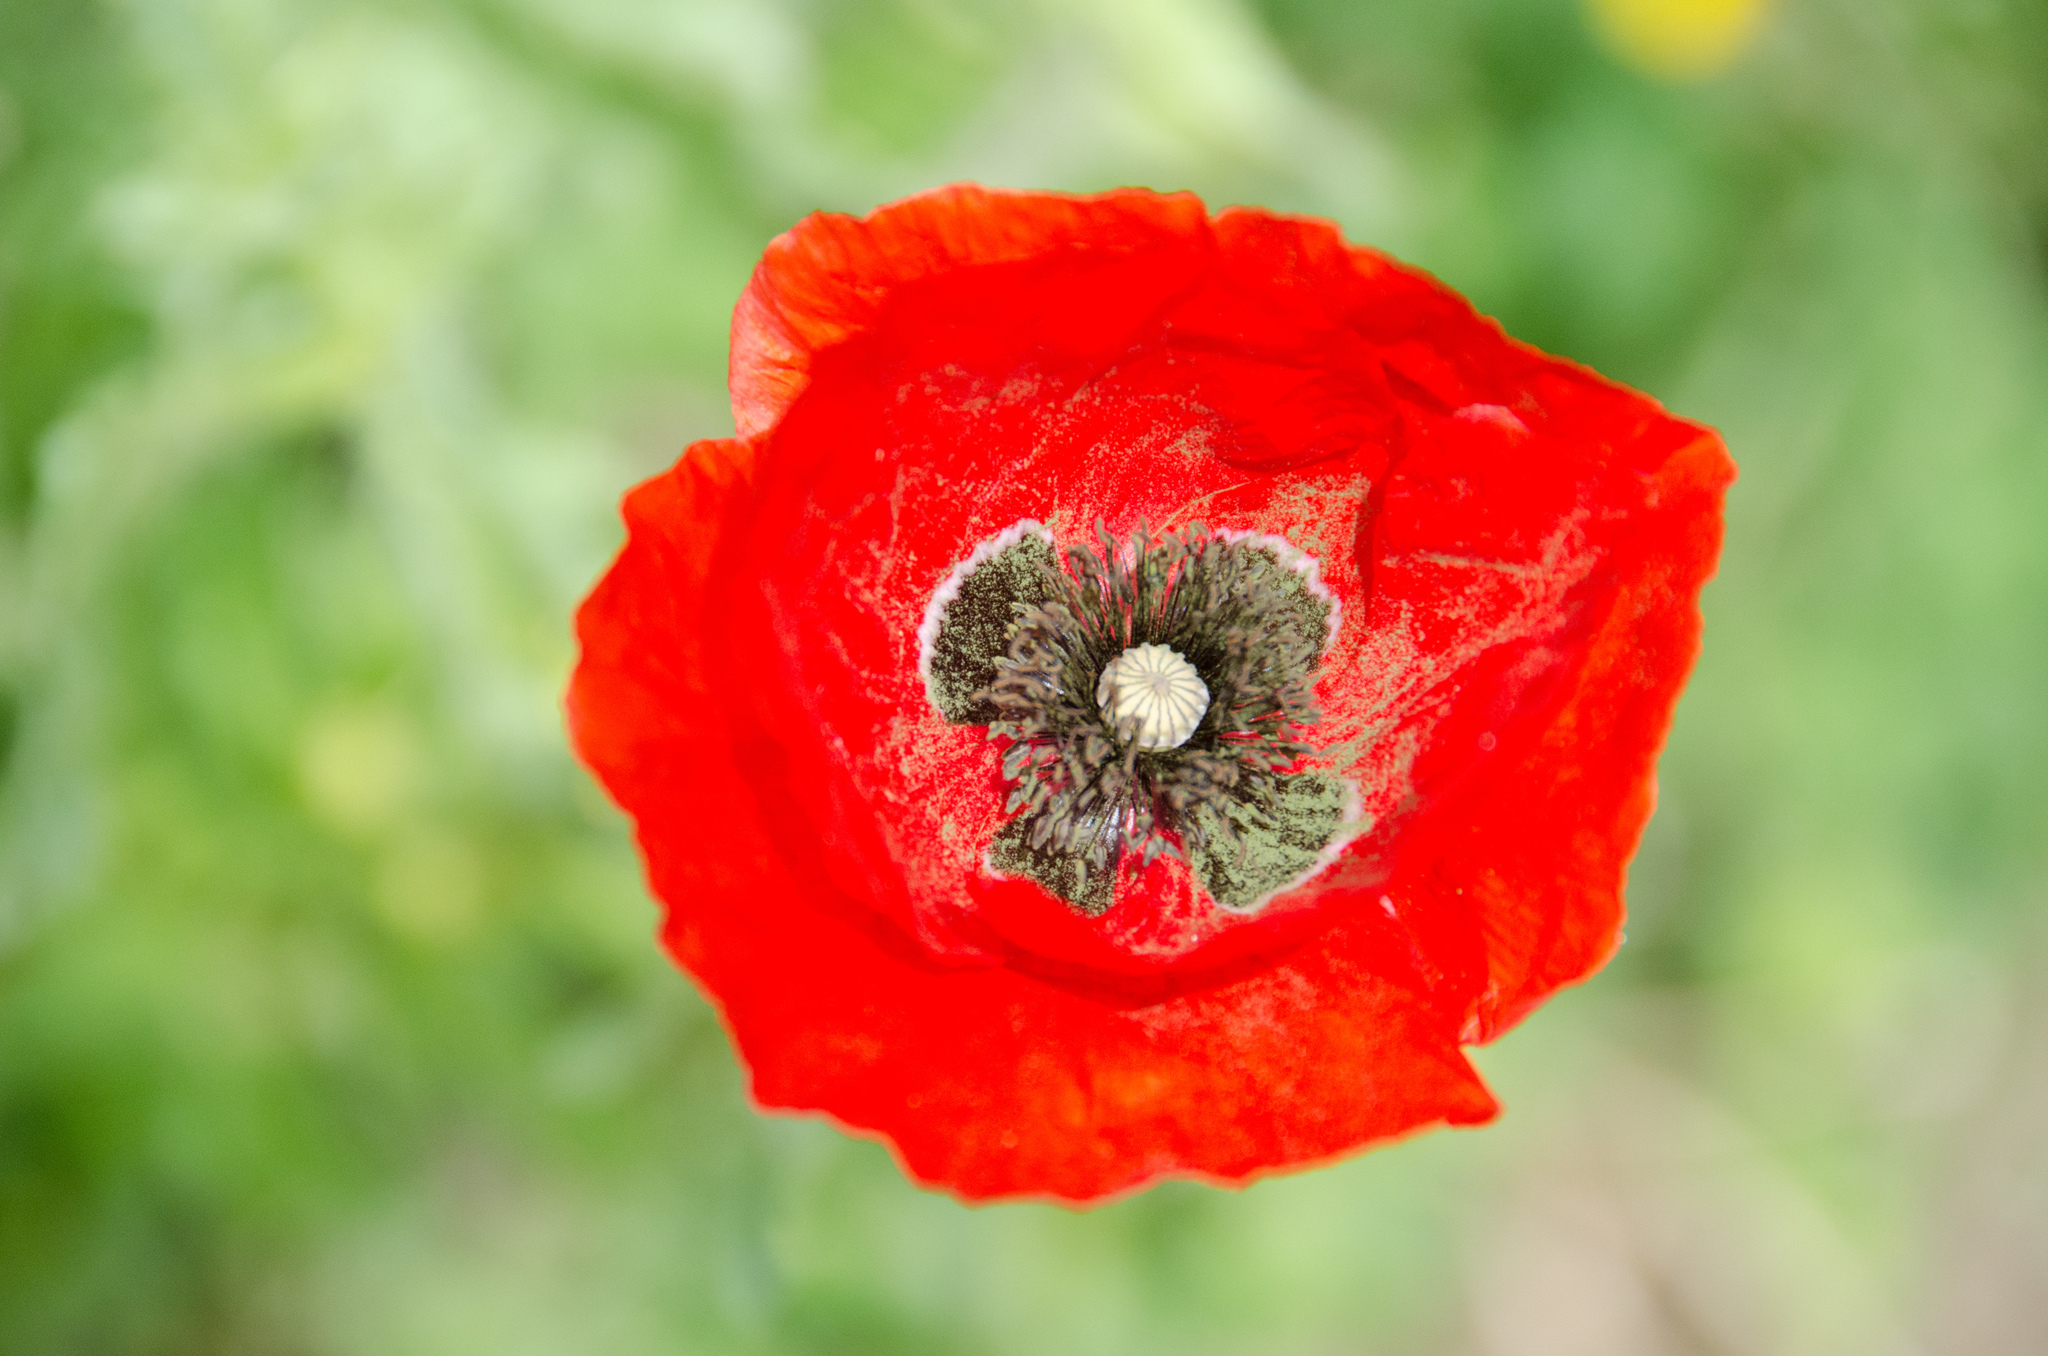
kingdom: Plantae
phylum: Tracheophyta
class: Magnoliopsida
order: Ranunculales
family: Papaveraceae
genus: Papaver
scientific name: Papaver rhoeas
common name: Corn poppy
